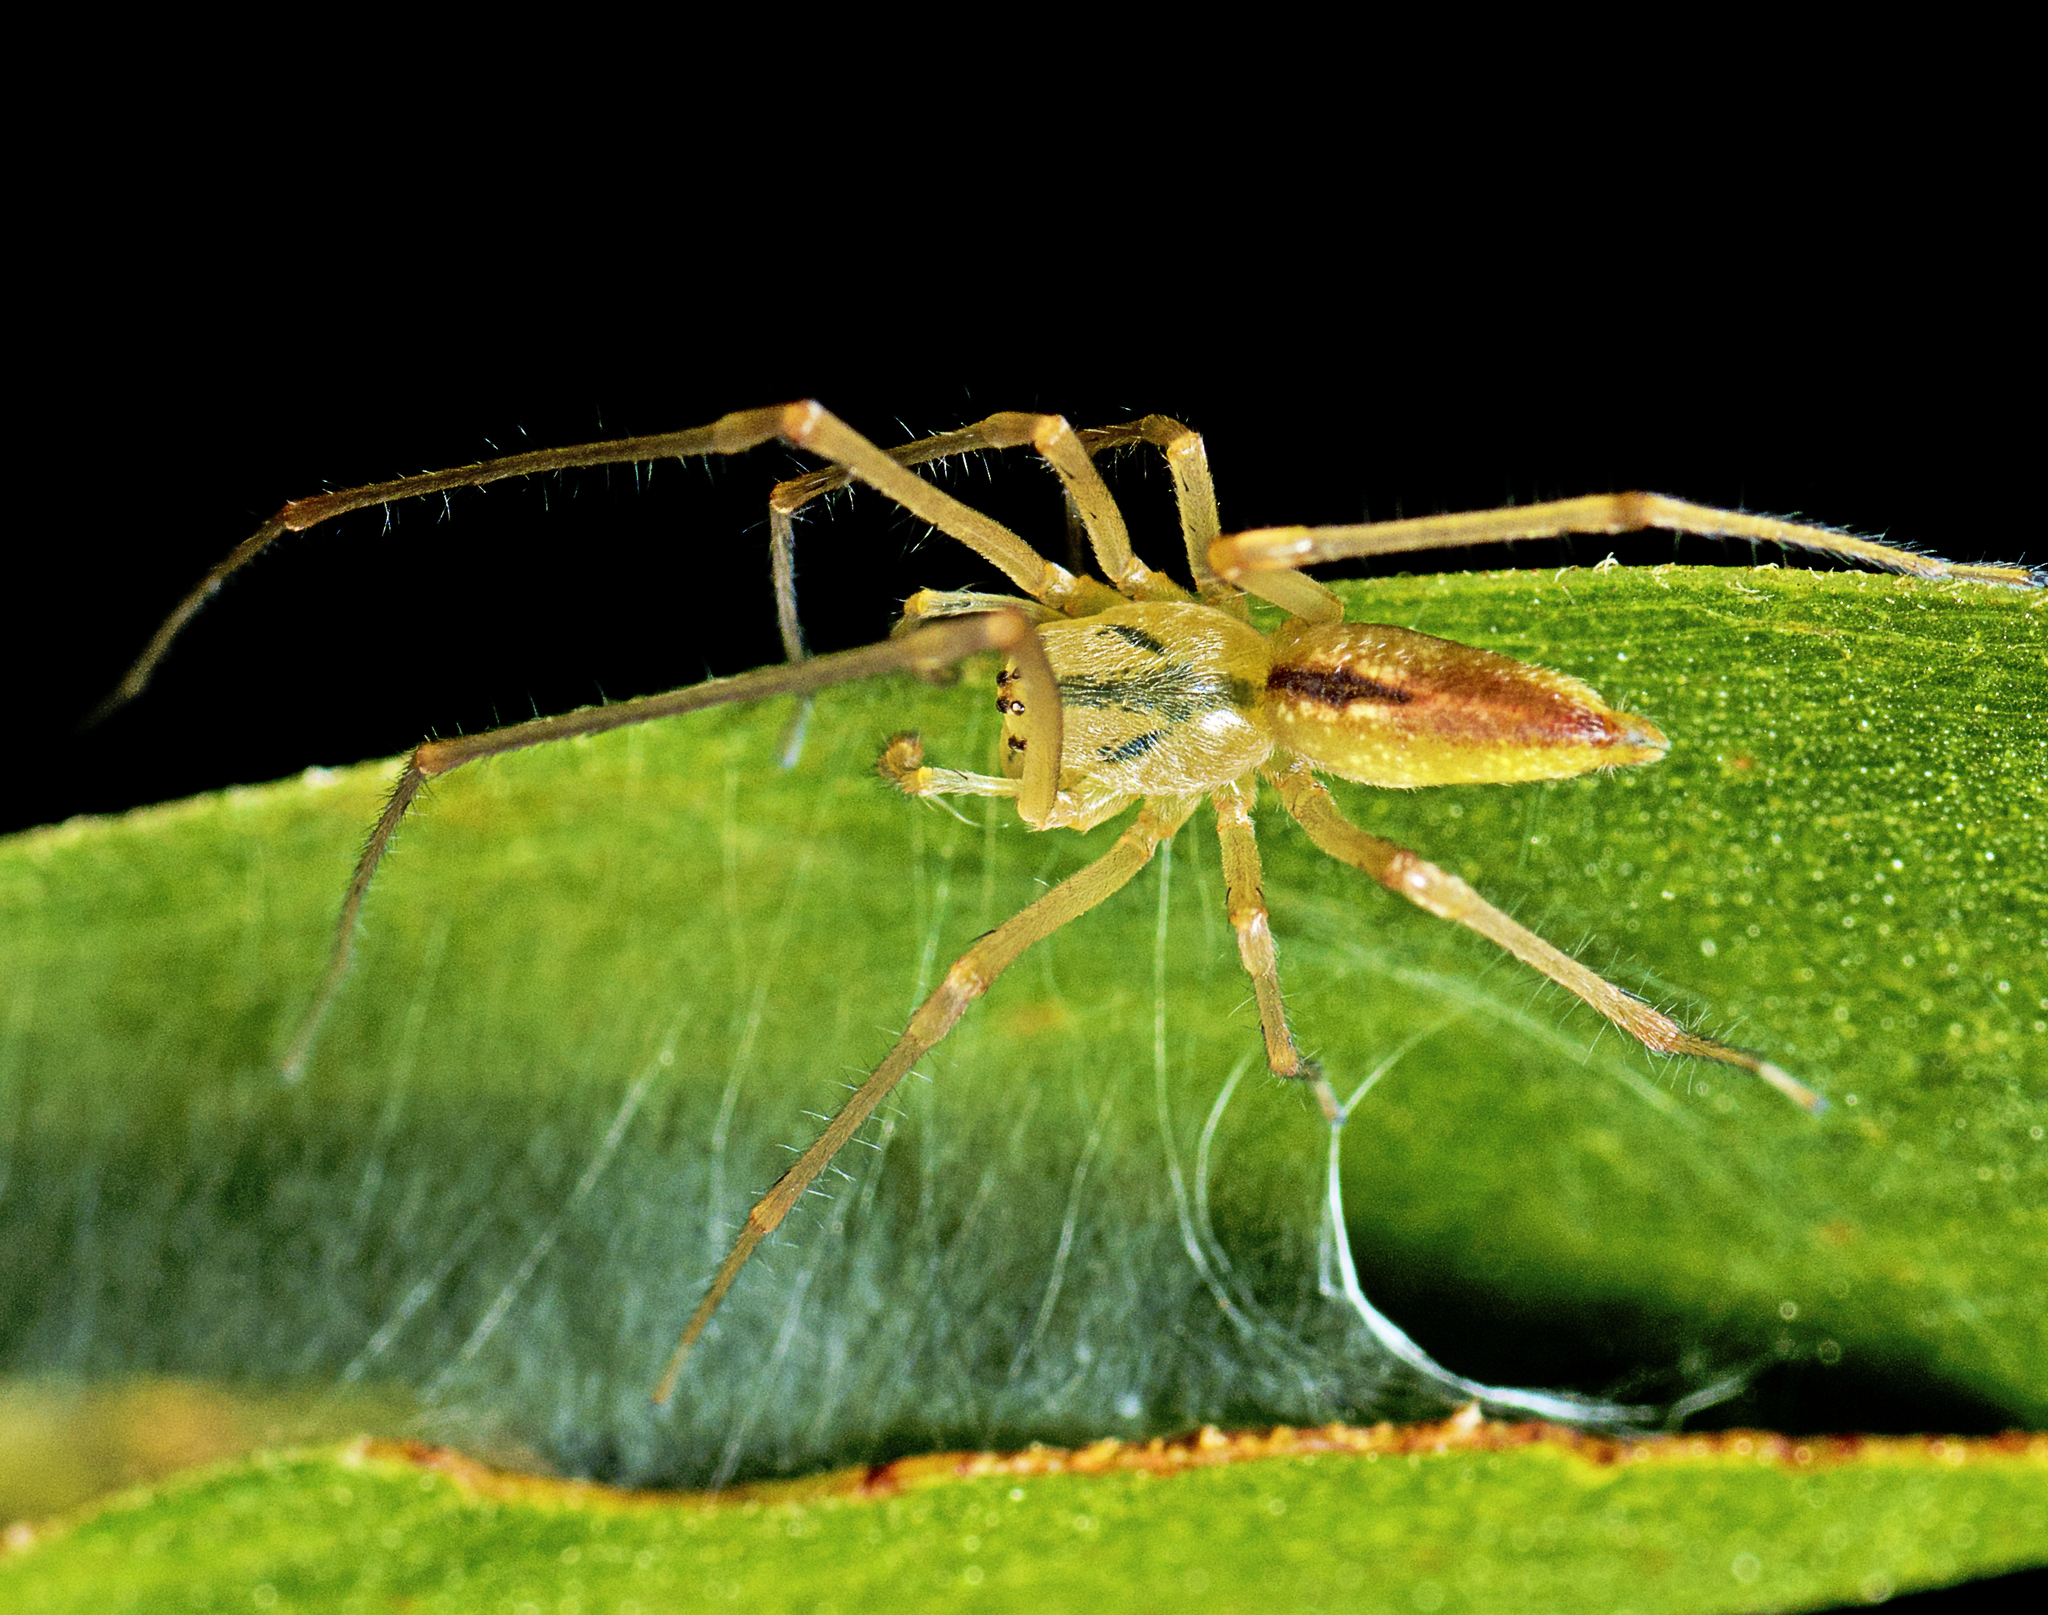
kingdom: Animalia
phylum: Arthropoda
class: Arachnida
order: Araneae
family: Cheiracanthiidae
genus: Cheiracanthium
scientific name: Cheiracanthium gracile
